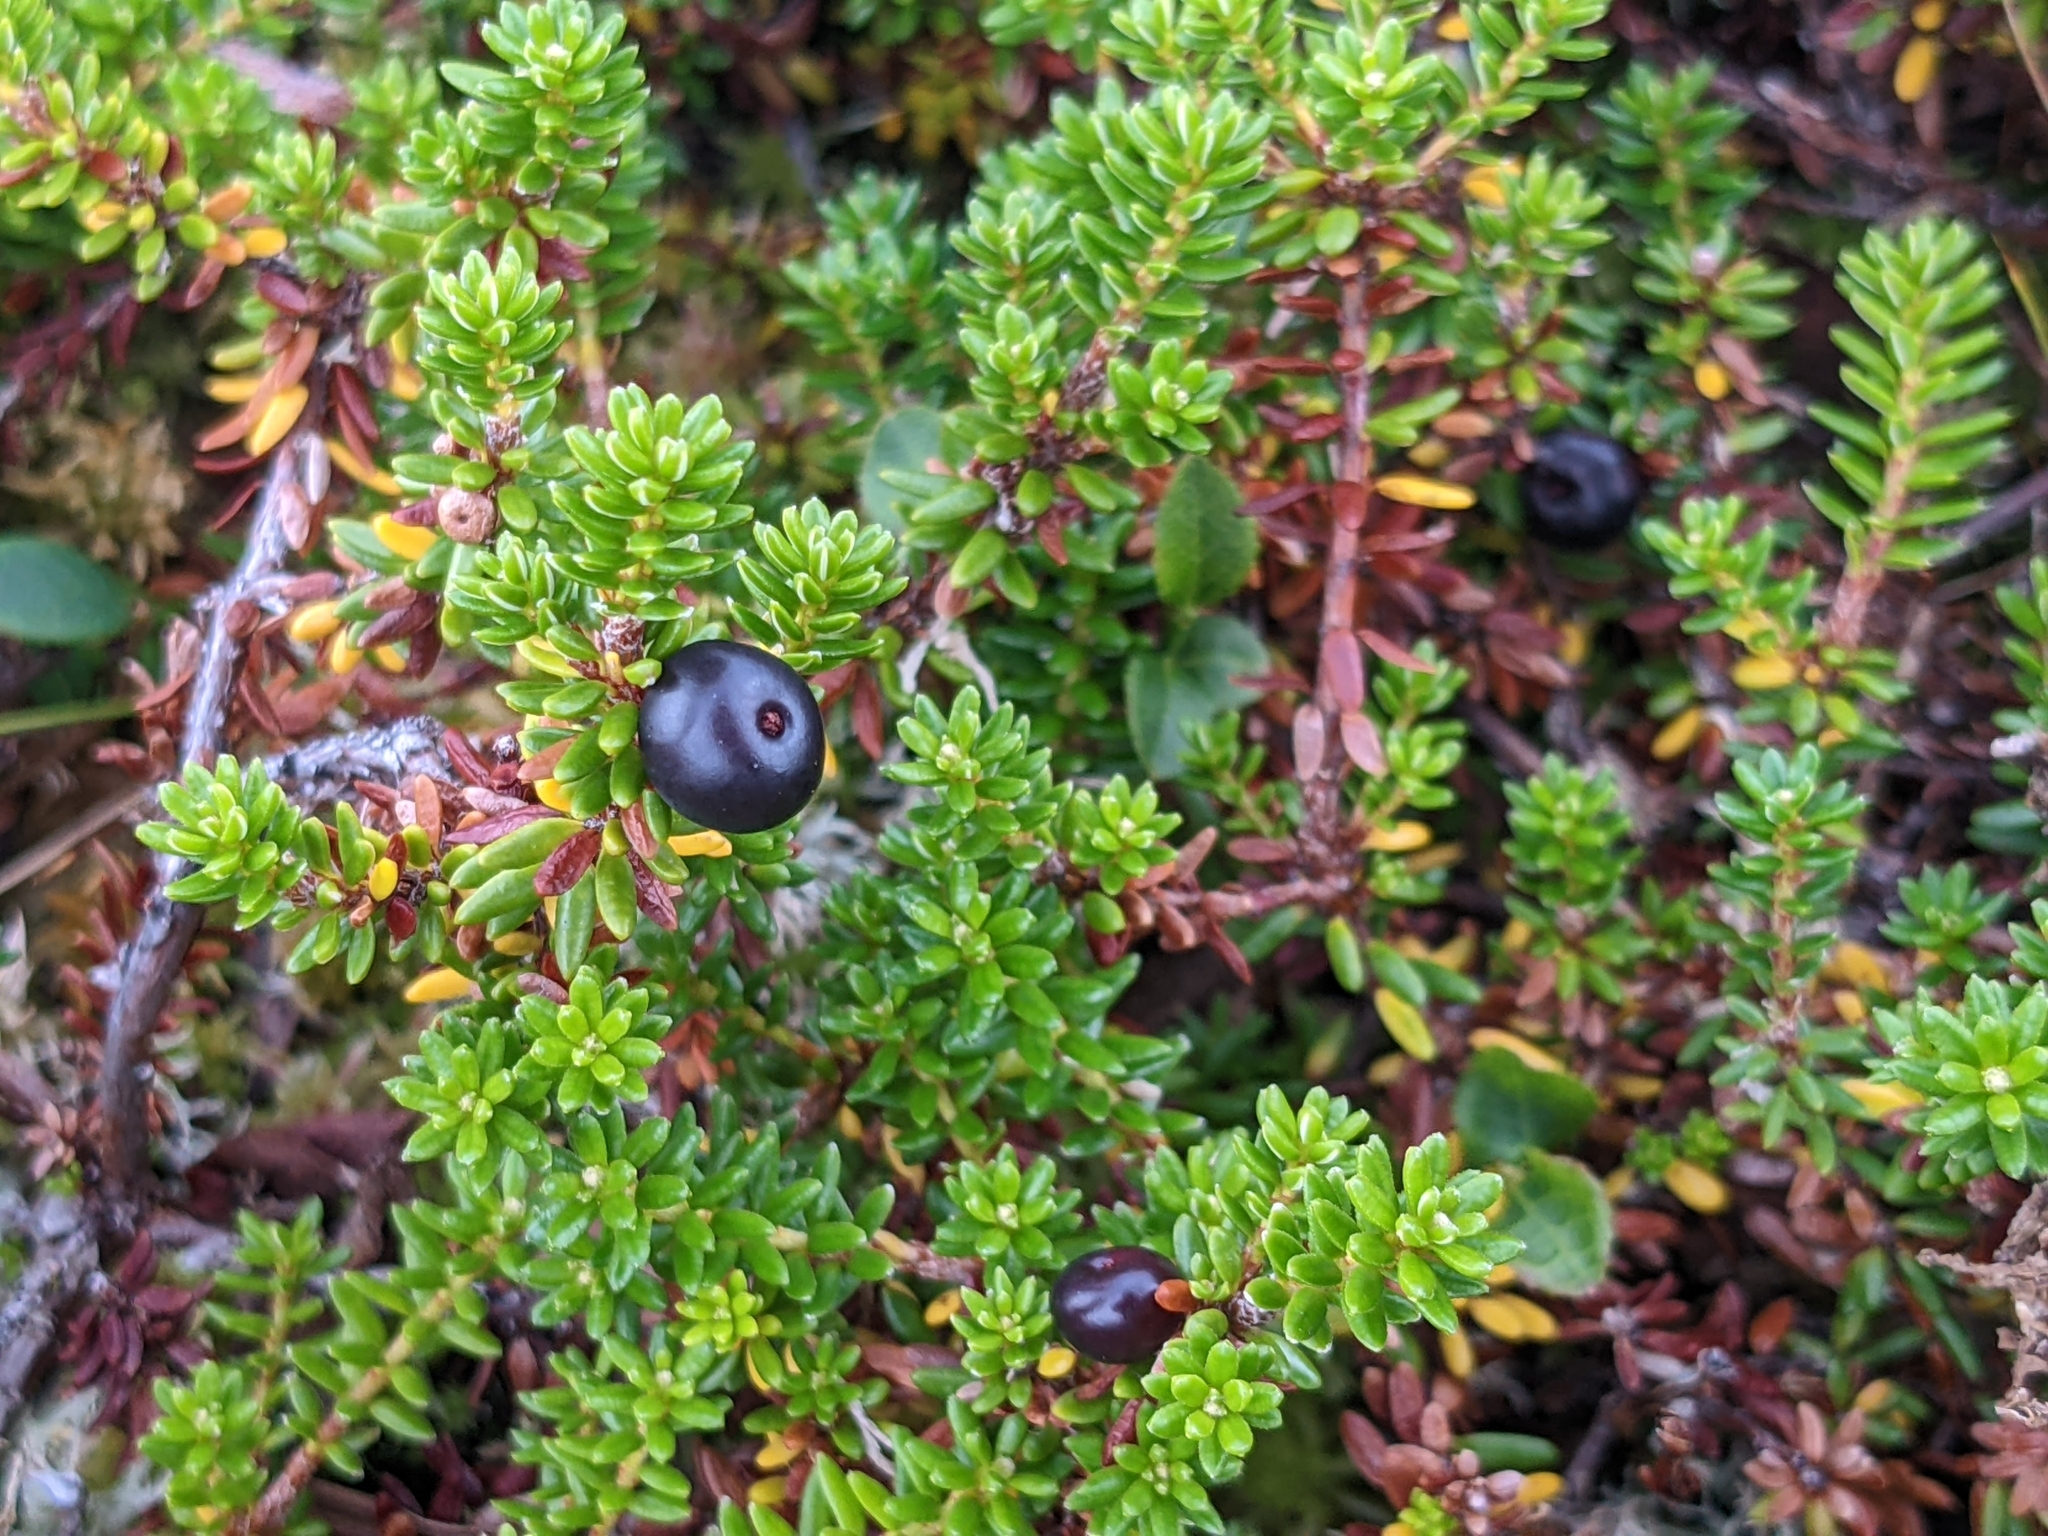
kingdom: Plantae
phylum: Tracheophyta
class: Magnoliopsida
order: Ericales
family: Ericaceae
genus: Empetrum
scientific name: Empetrum nigrum
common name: Black crowberry
